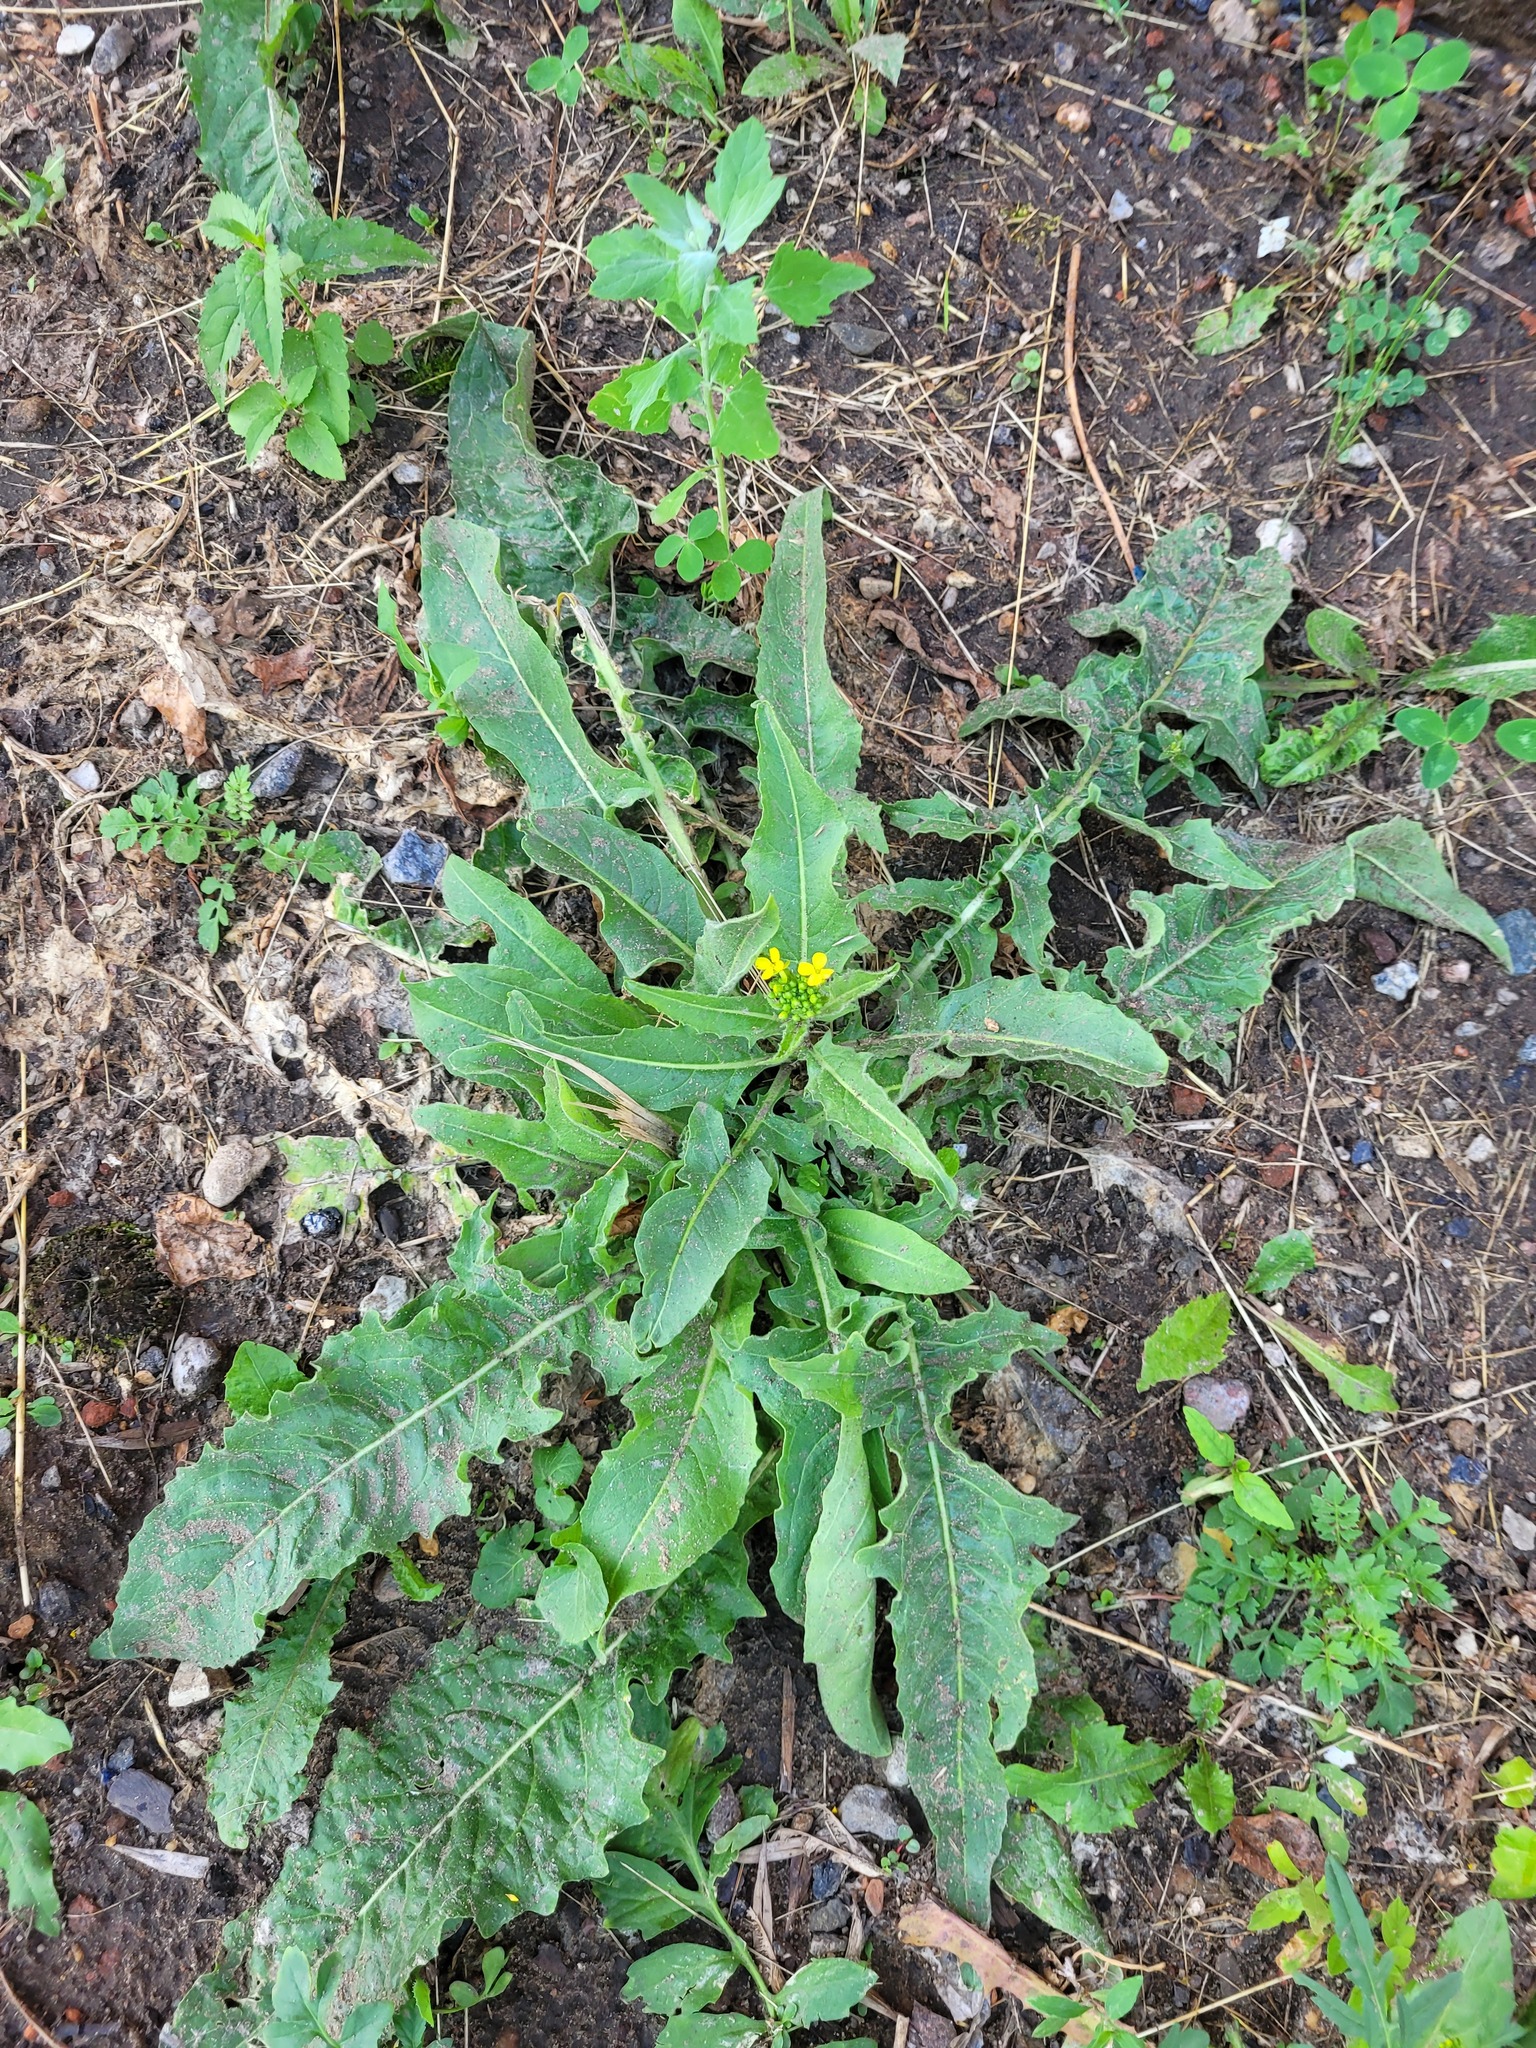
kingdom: Plantae
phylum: Tracheophyta
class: Magnoliopsida
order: Brassicales
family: Brassicaceae
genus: Bunias
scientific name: Bunias orientalis
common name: Warty-cabbage
